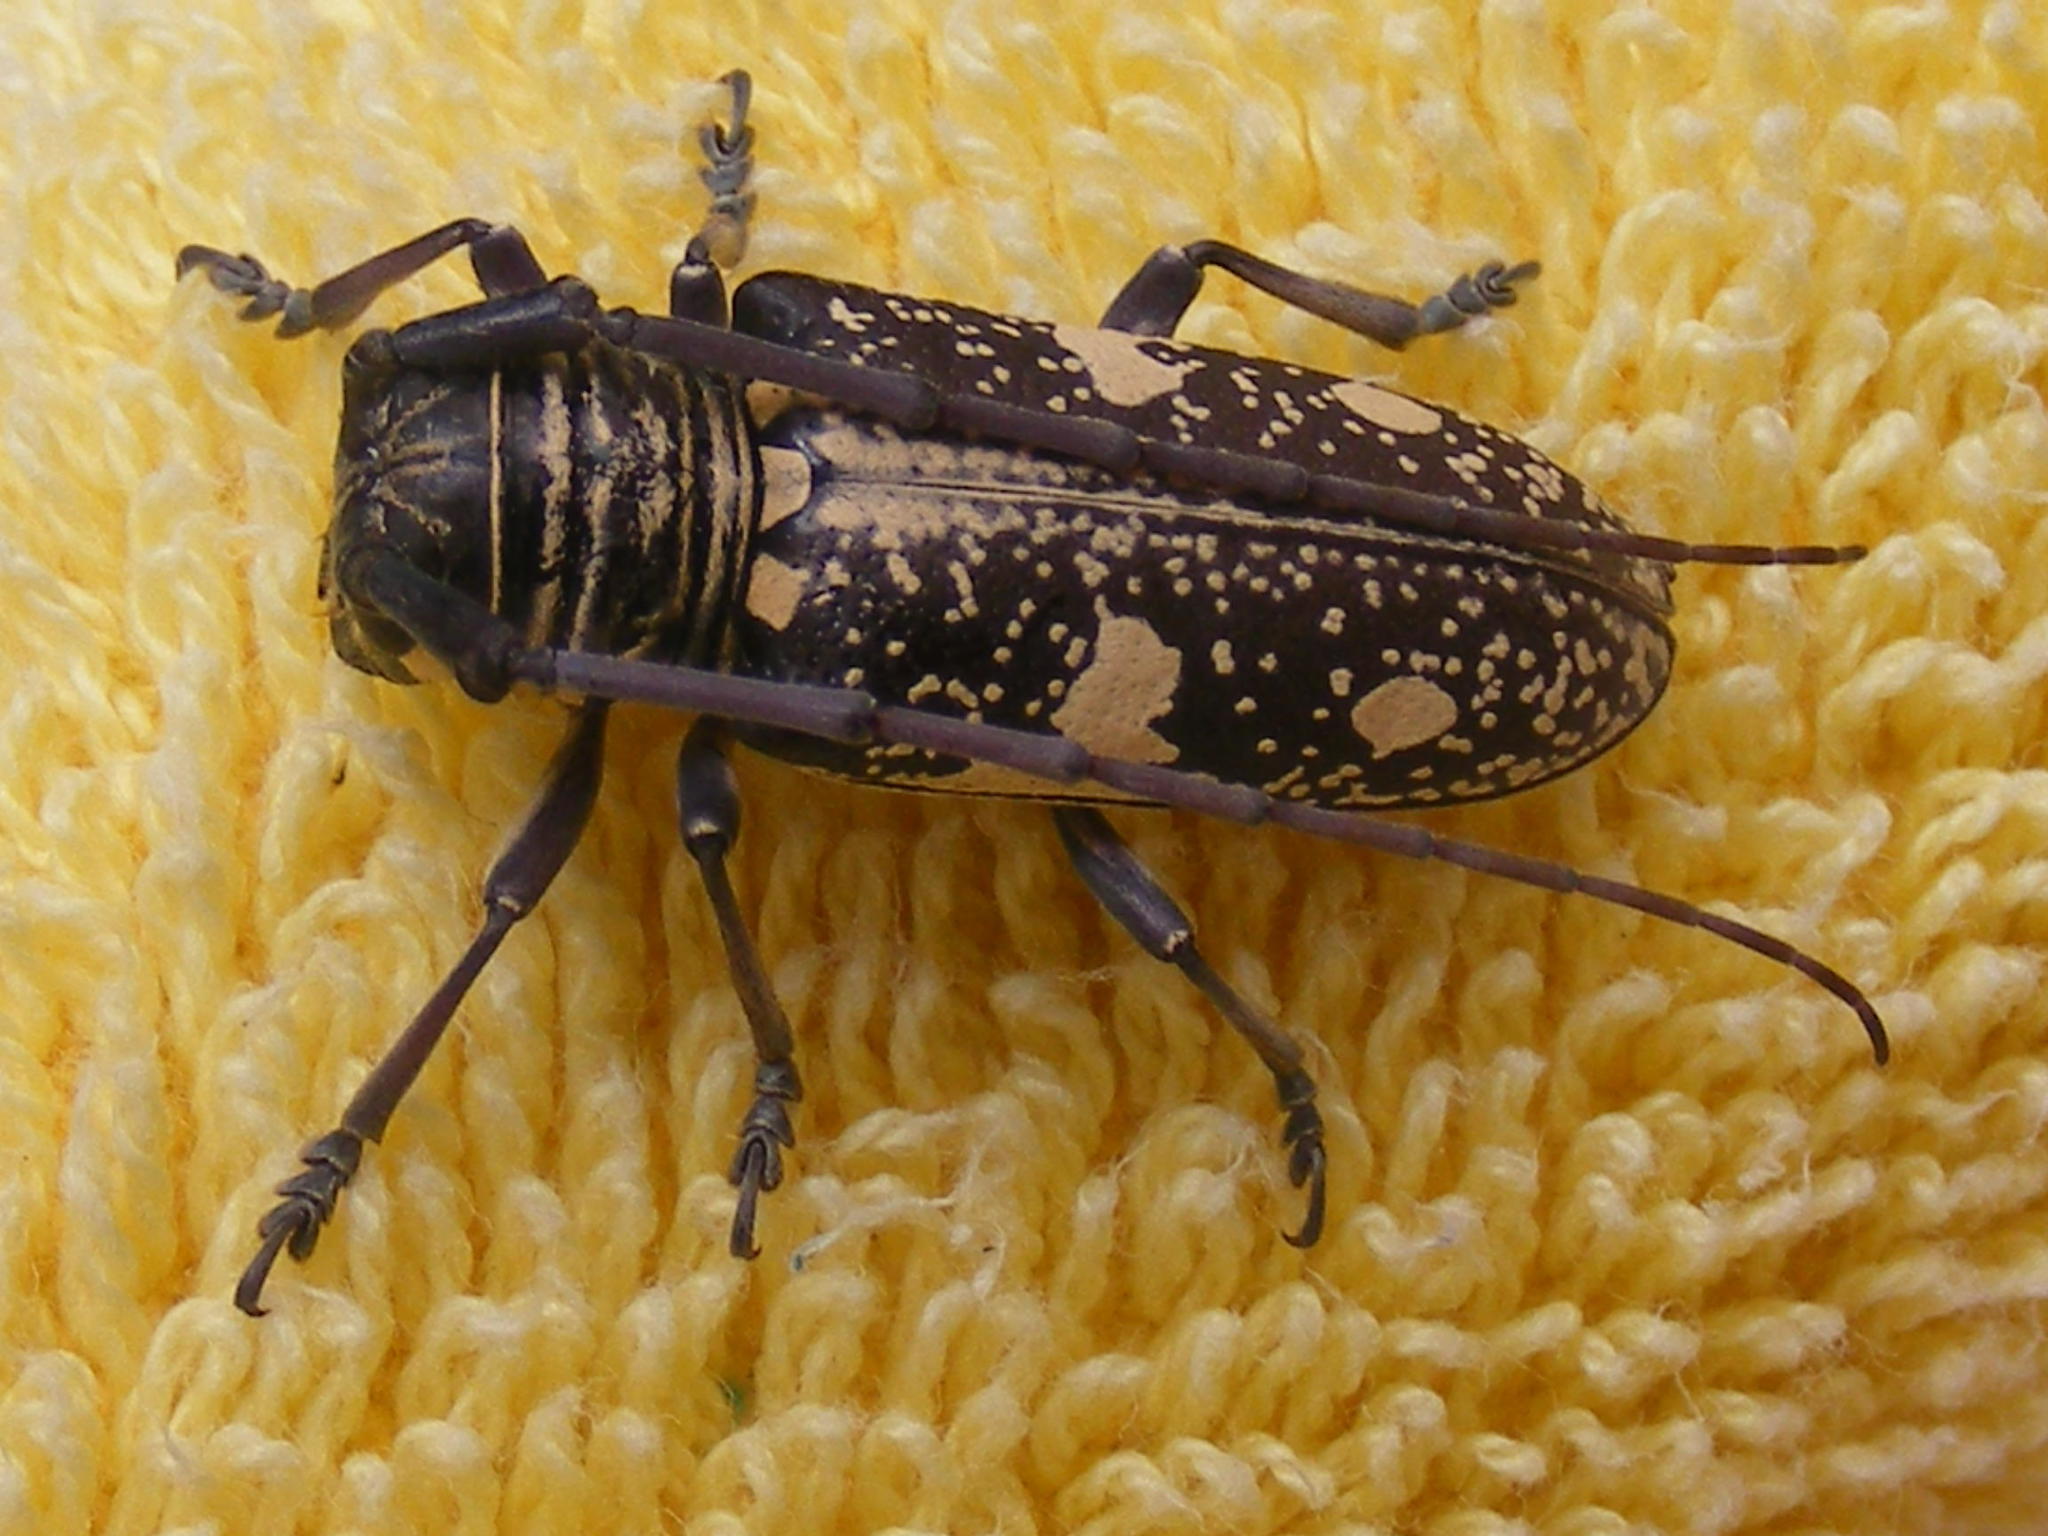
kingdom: Animalia
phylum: Arthropoda
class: Insecta
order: Coleoptera
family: Cerambycidae
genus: Prosopocera
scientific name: Prosopocera aspersa
